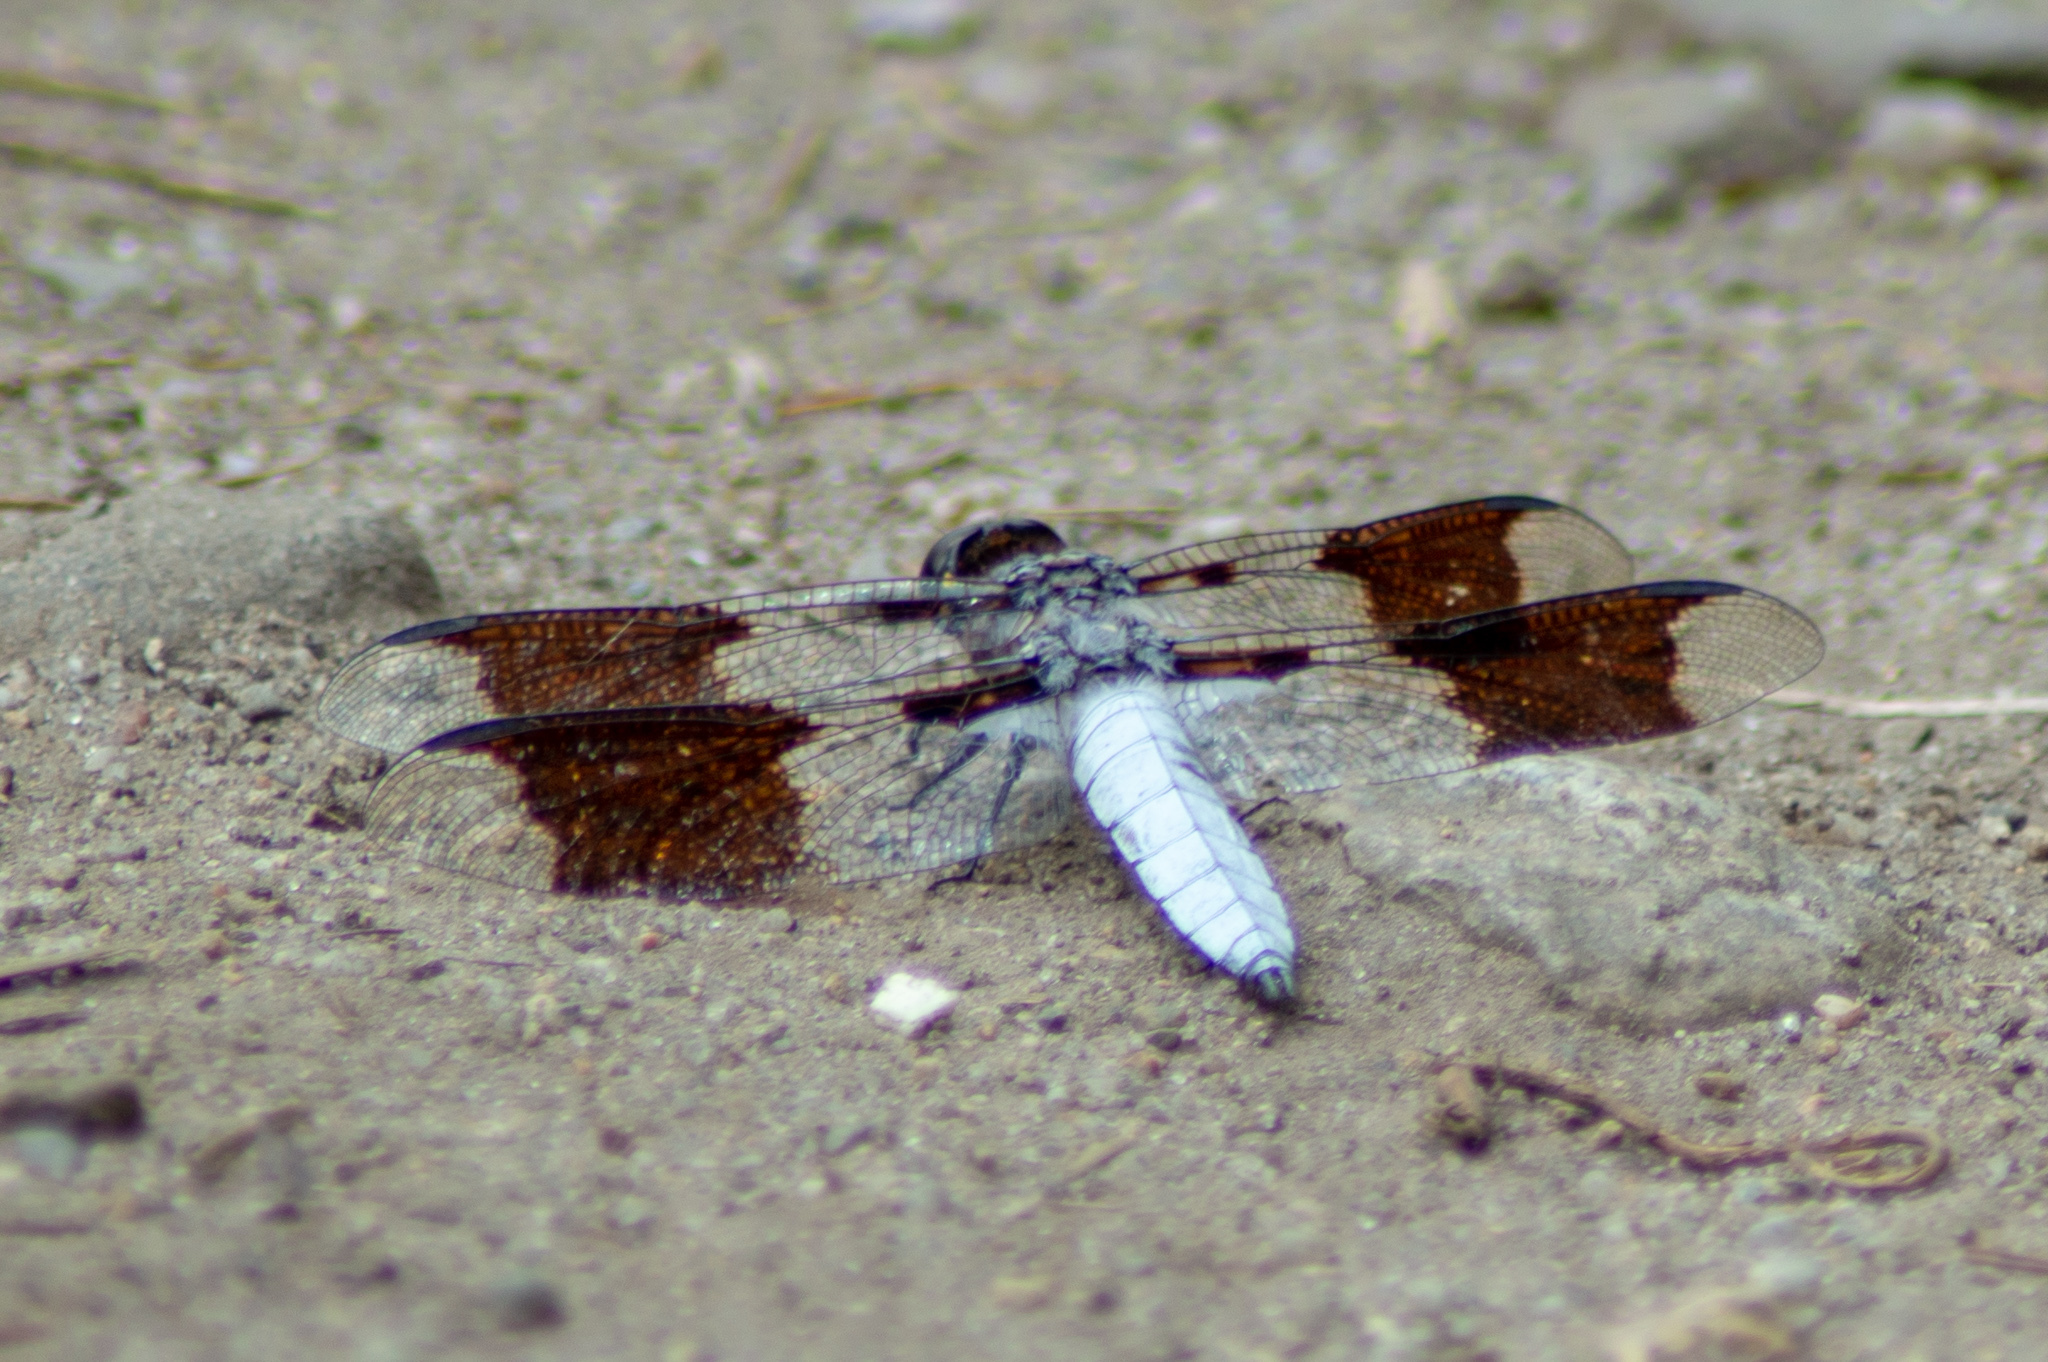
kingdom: Animalia
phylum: Arthropoda
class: Insecta
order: Odonata
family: Libellulidae
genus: Plathemis
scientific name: Plathemis lydia
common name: Common whitetail
